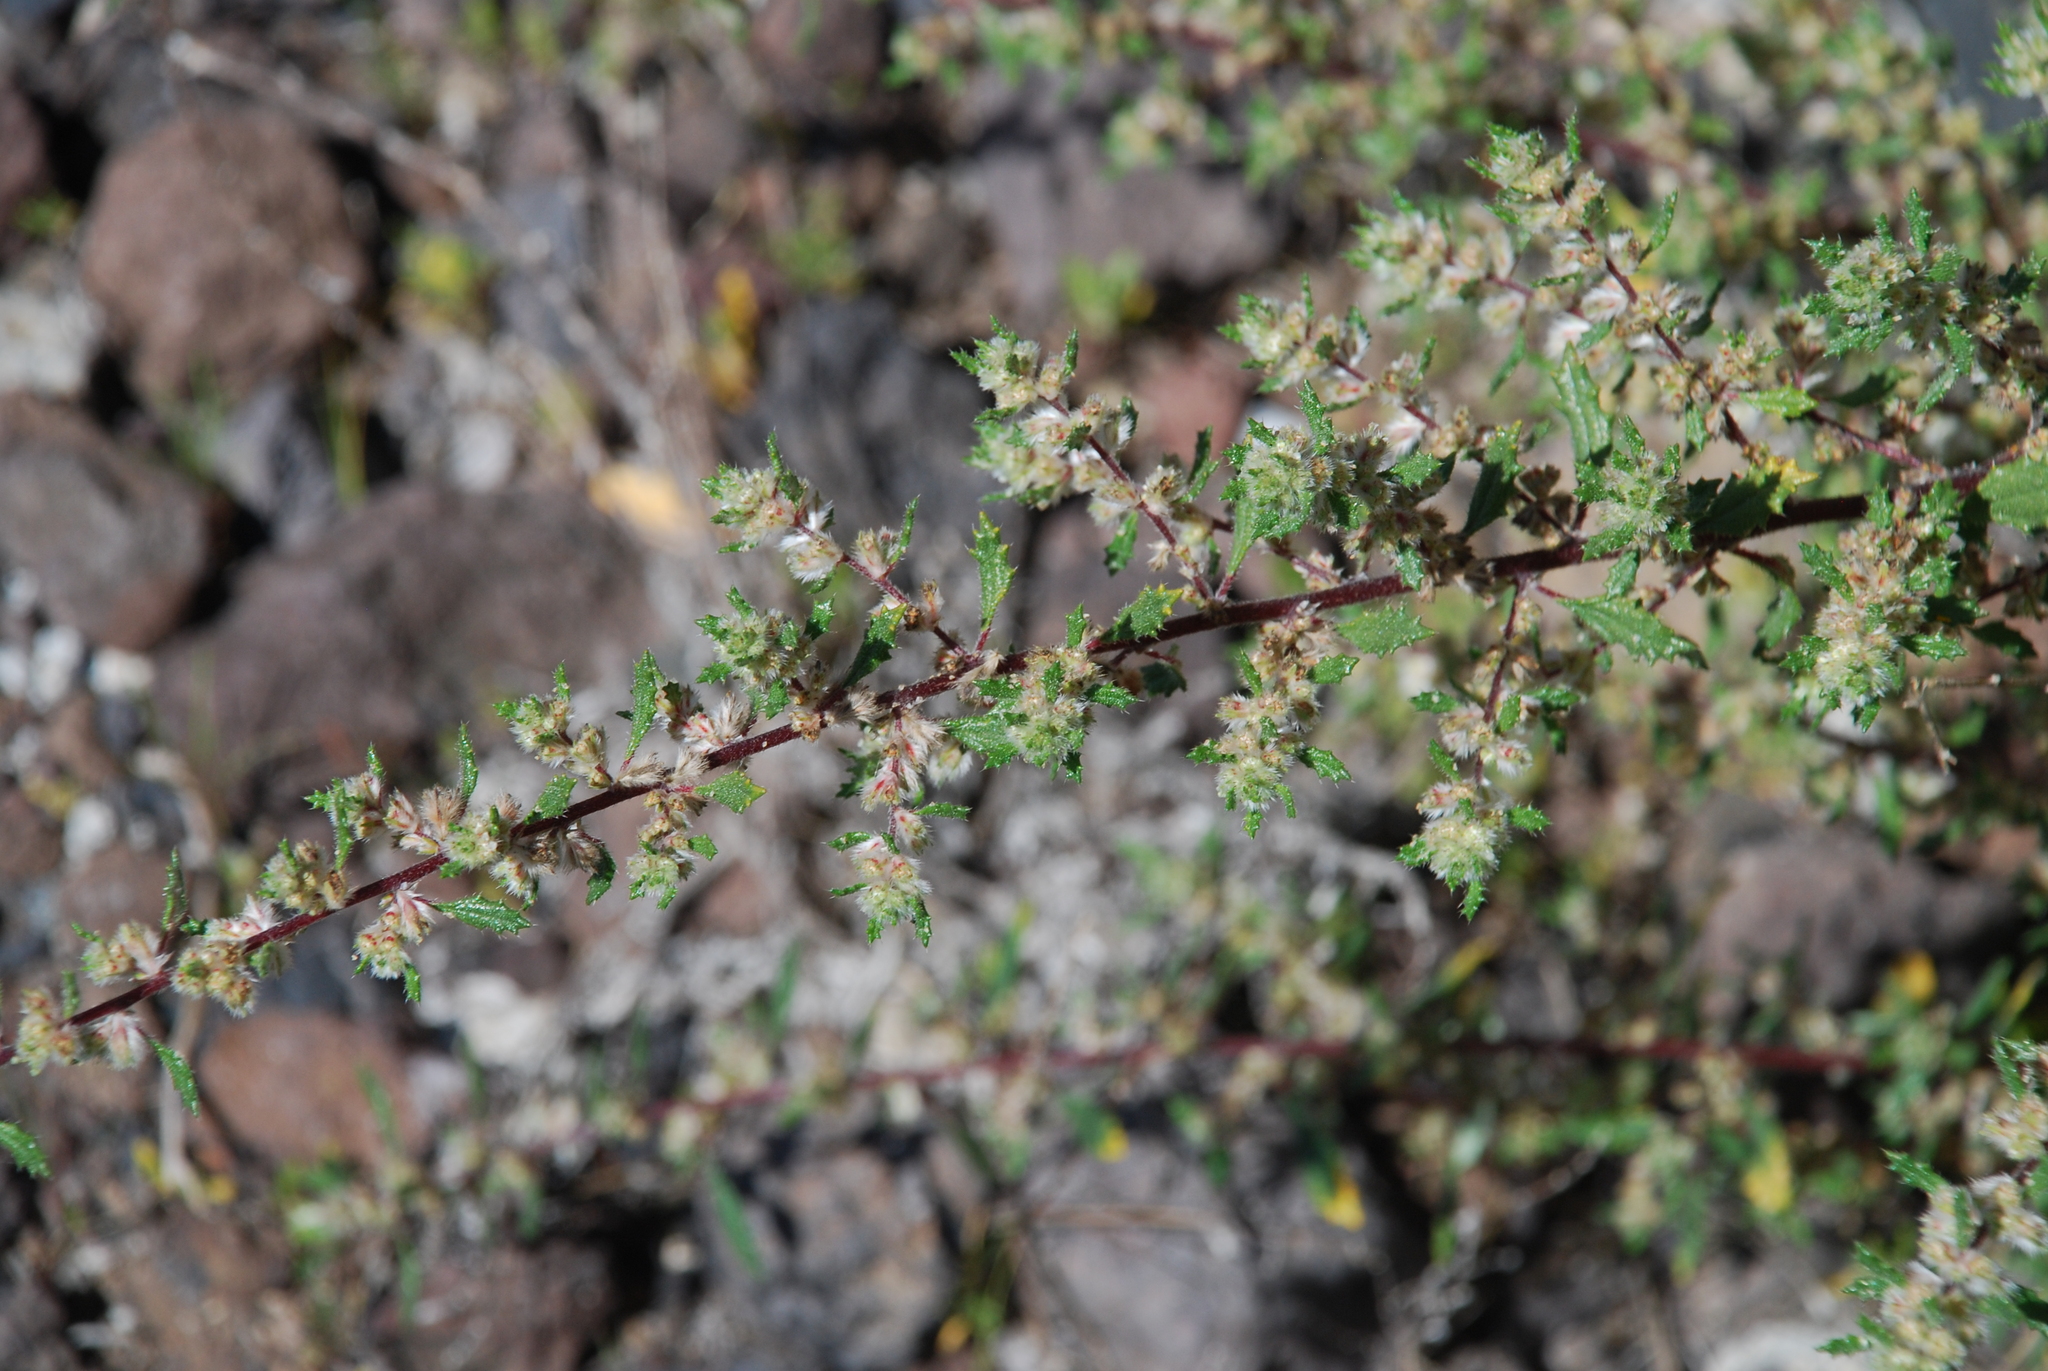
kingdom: Plantae
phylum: Tracheophyta
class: Magnoliopsida
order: Rosales
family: Urticaceae
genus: Forsskaolea
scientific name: Forsskaolea angustifolia
